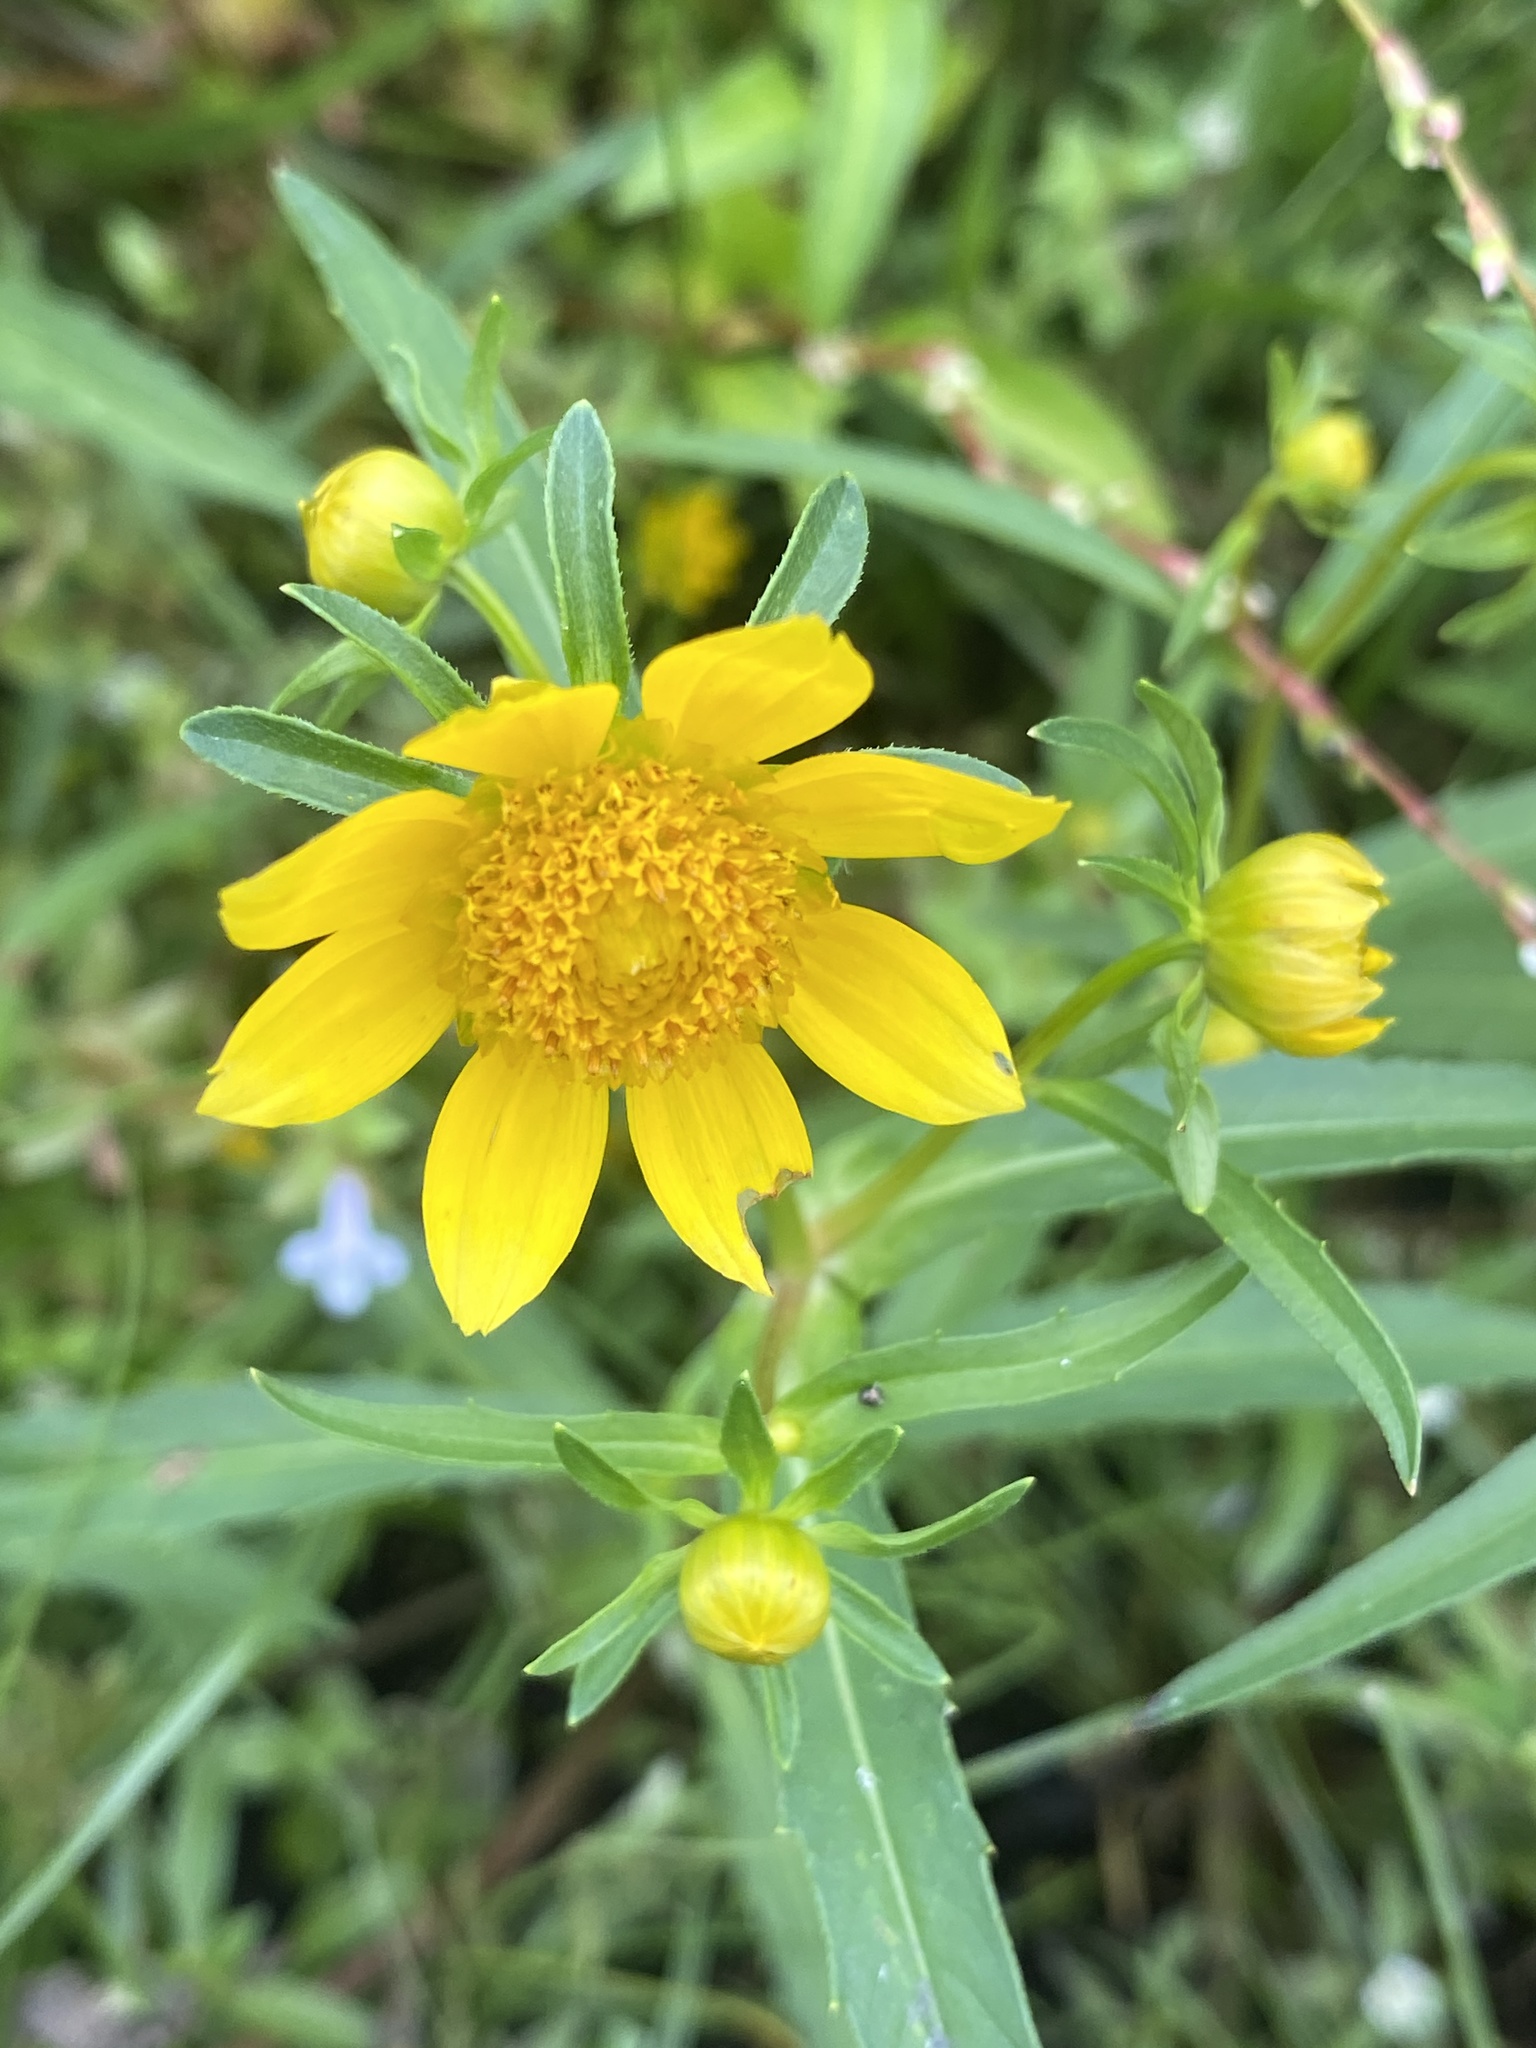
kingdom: Plantae
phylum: Tracheophyta
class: Magnoliopsida
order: Asterales
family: Asteraceae
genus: Bidens
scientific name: Bidens cernua
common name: Nodding bur-marigold
